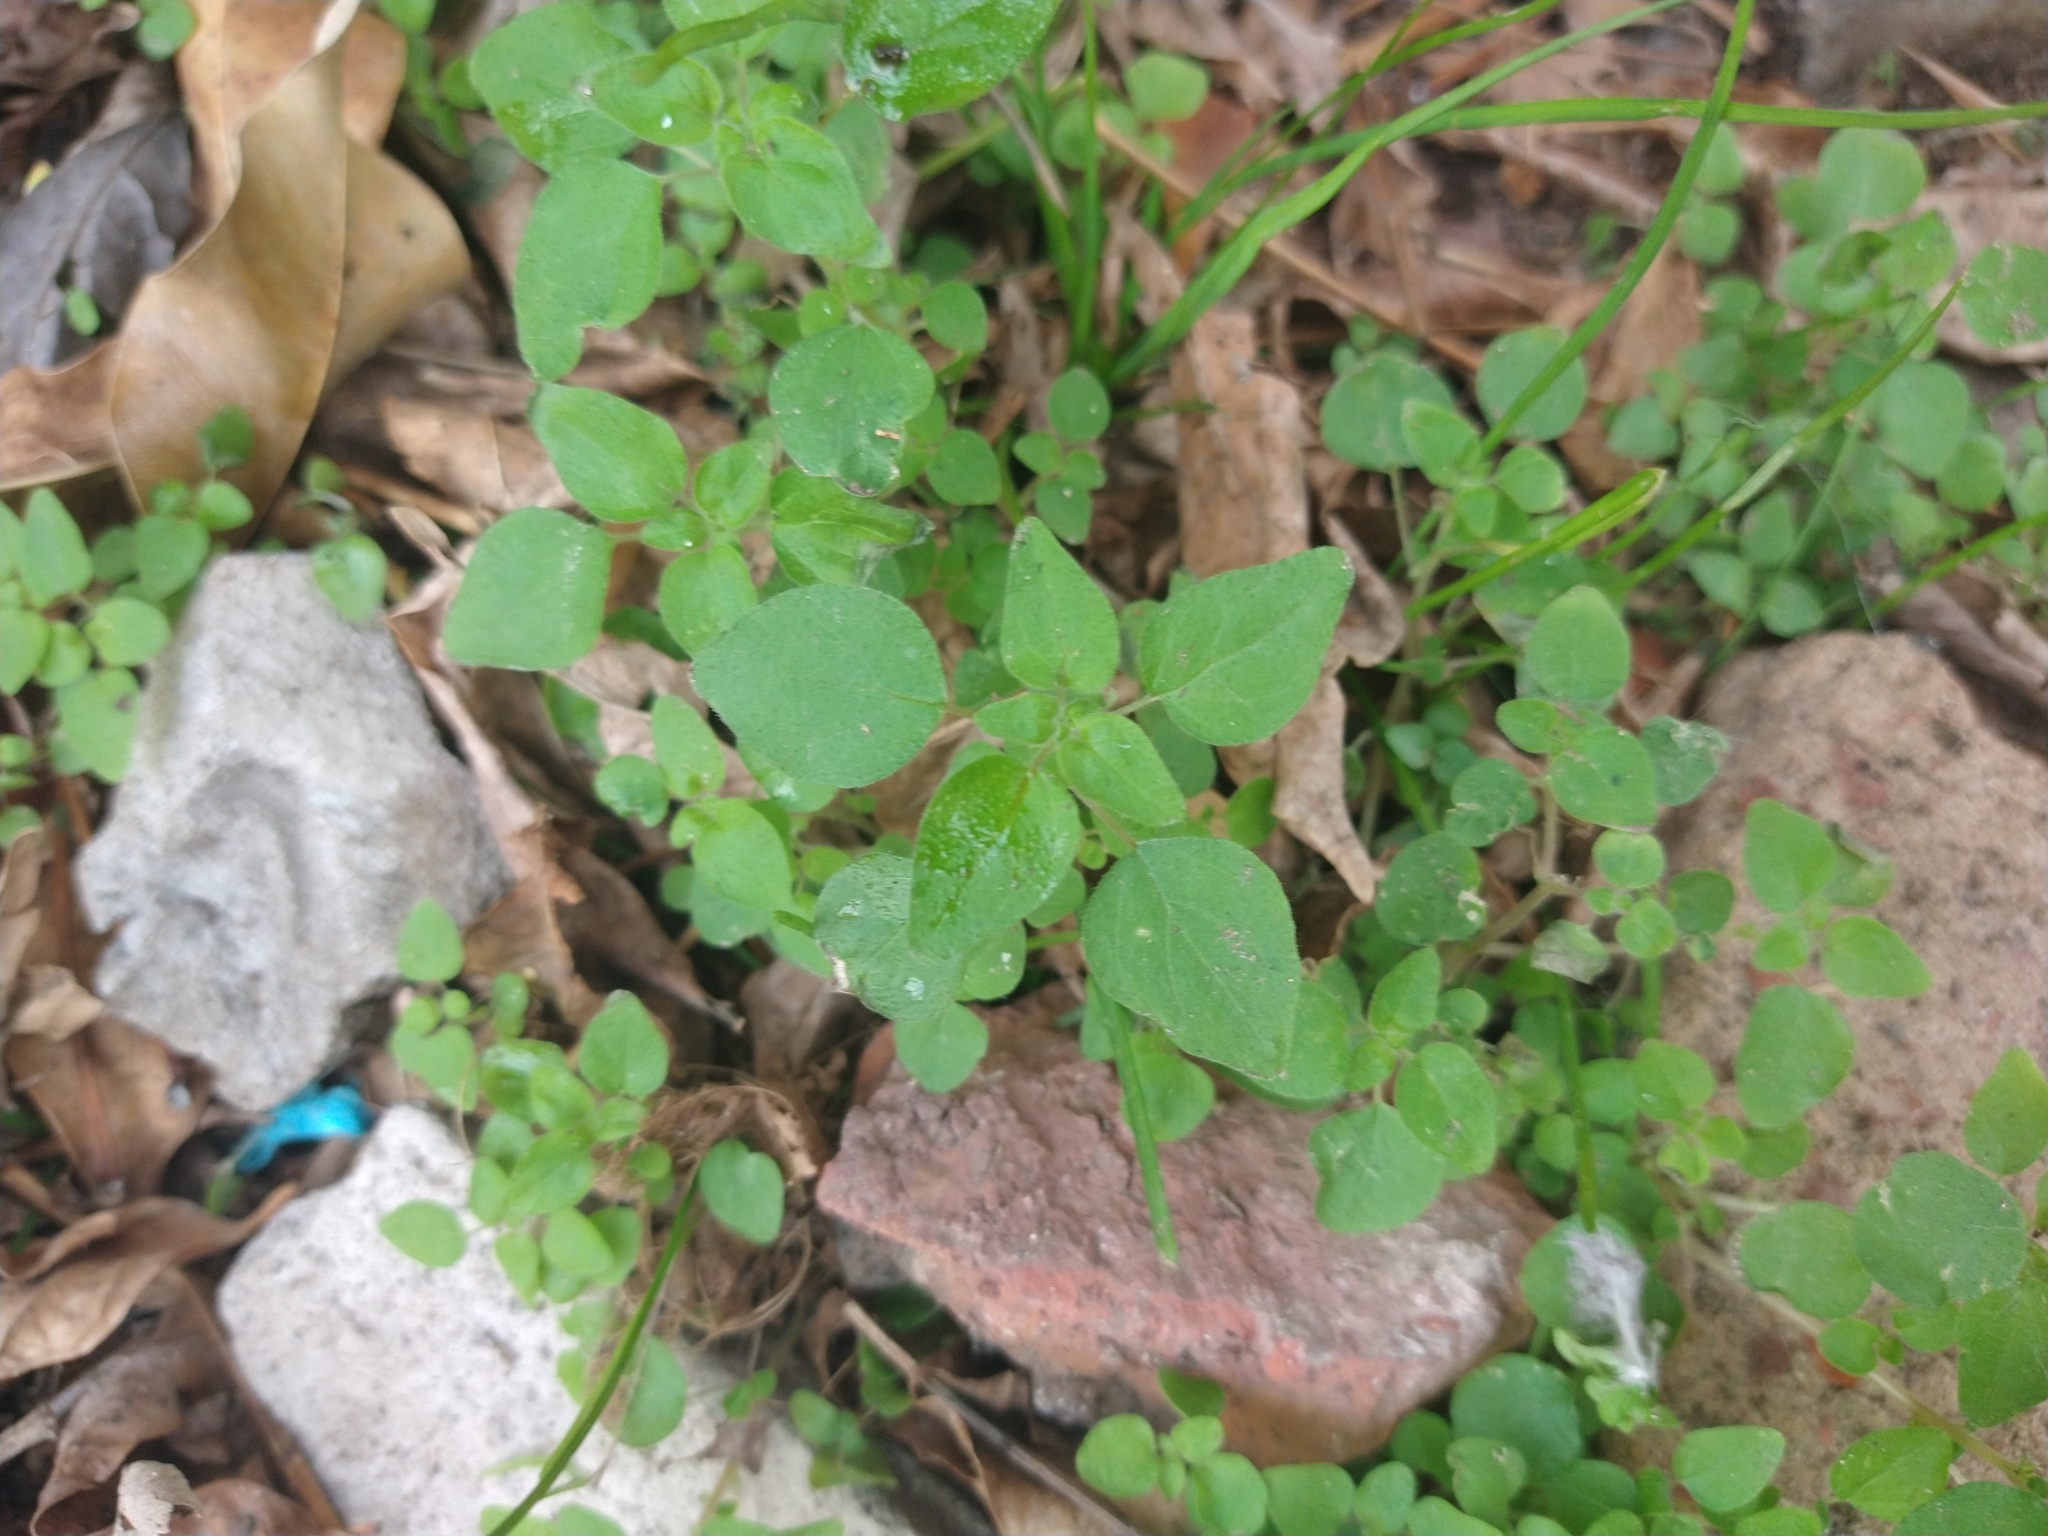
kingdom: Plantae
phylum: Tracheophyta
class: Magnoliopsida
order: Caryophyllales
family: Caryophyllaceae
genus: Stellaria
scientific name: Stellaria media
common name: Common chickweed
